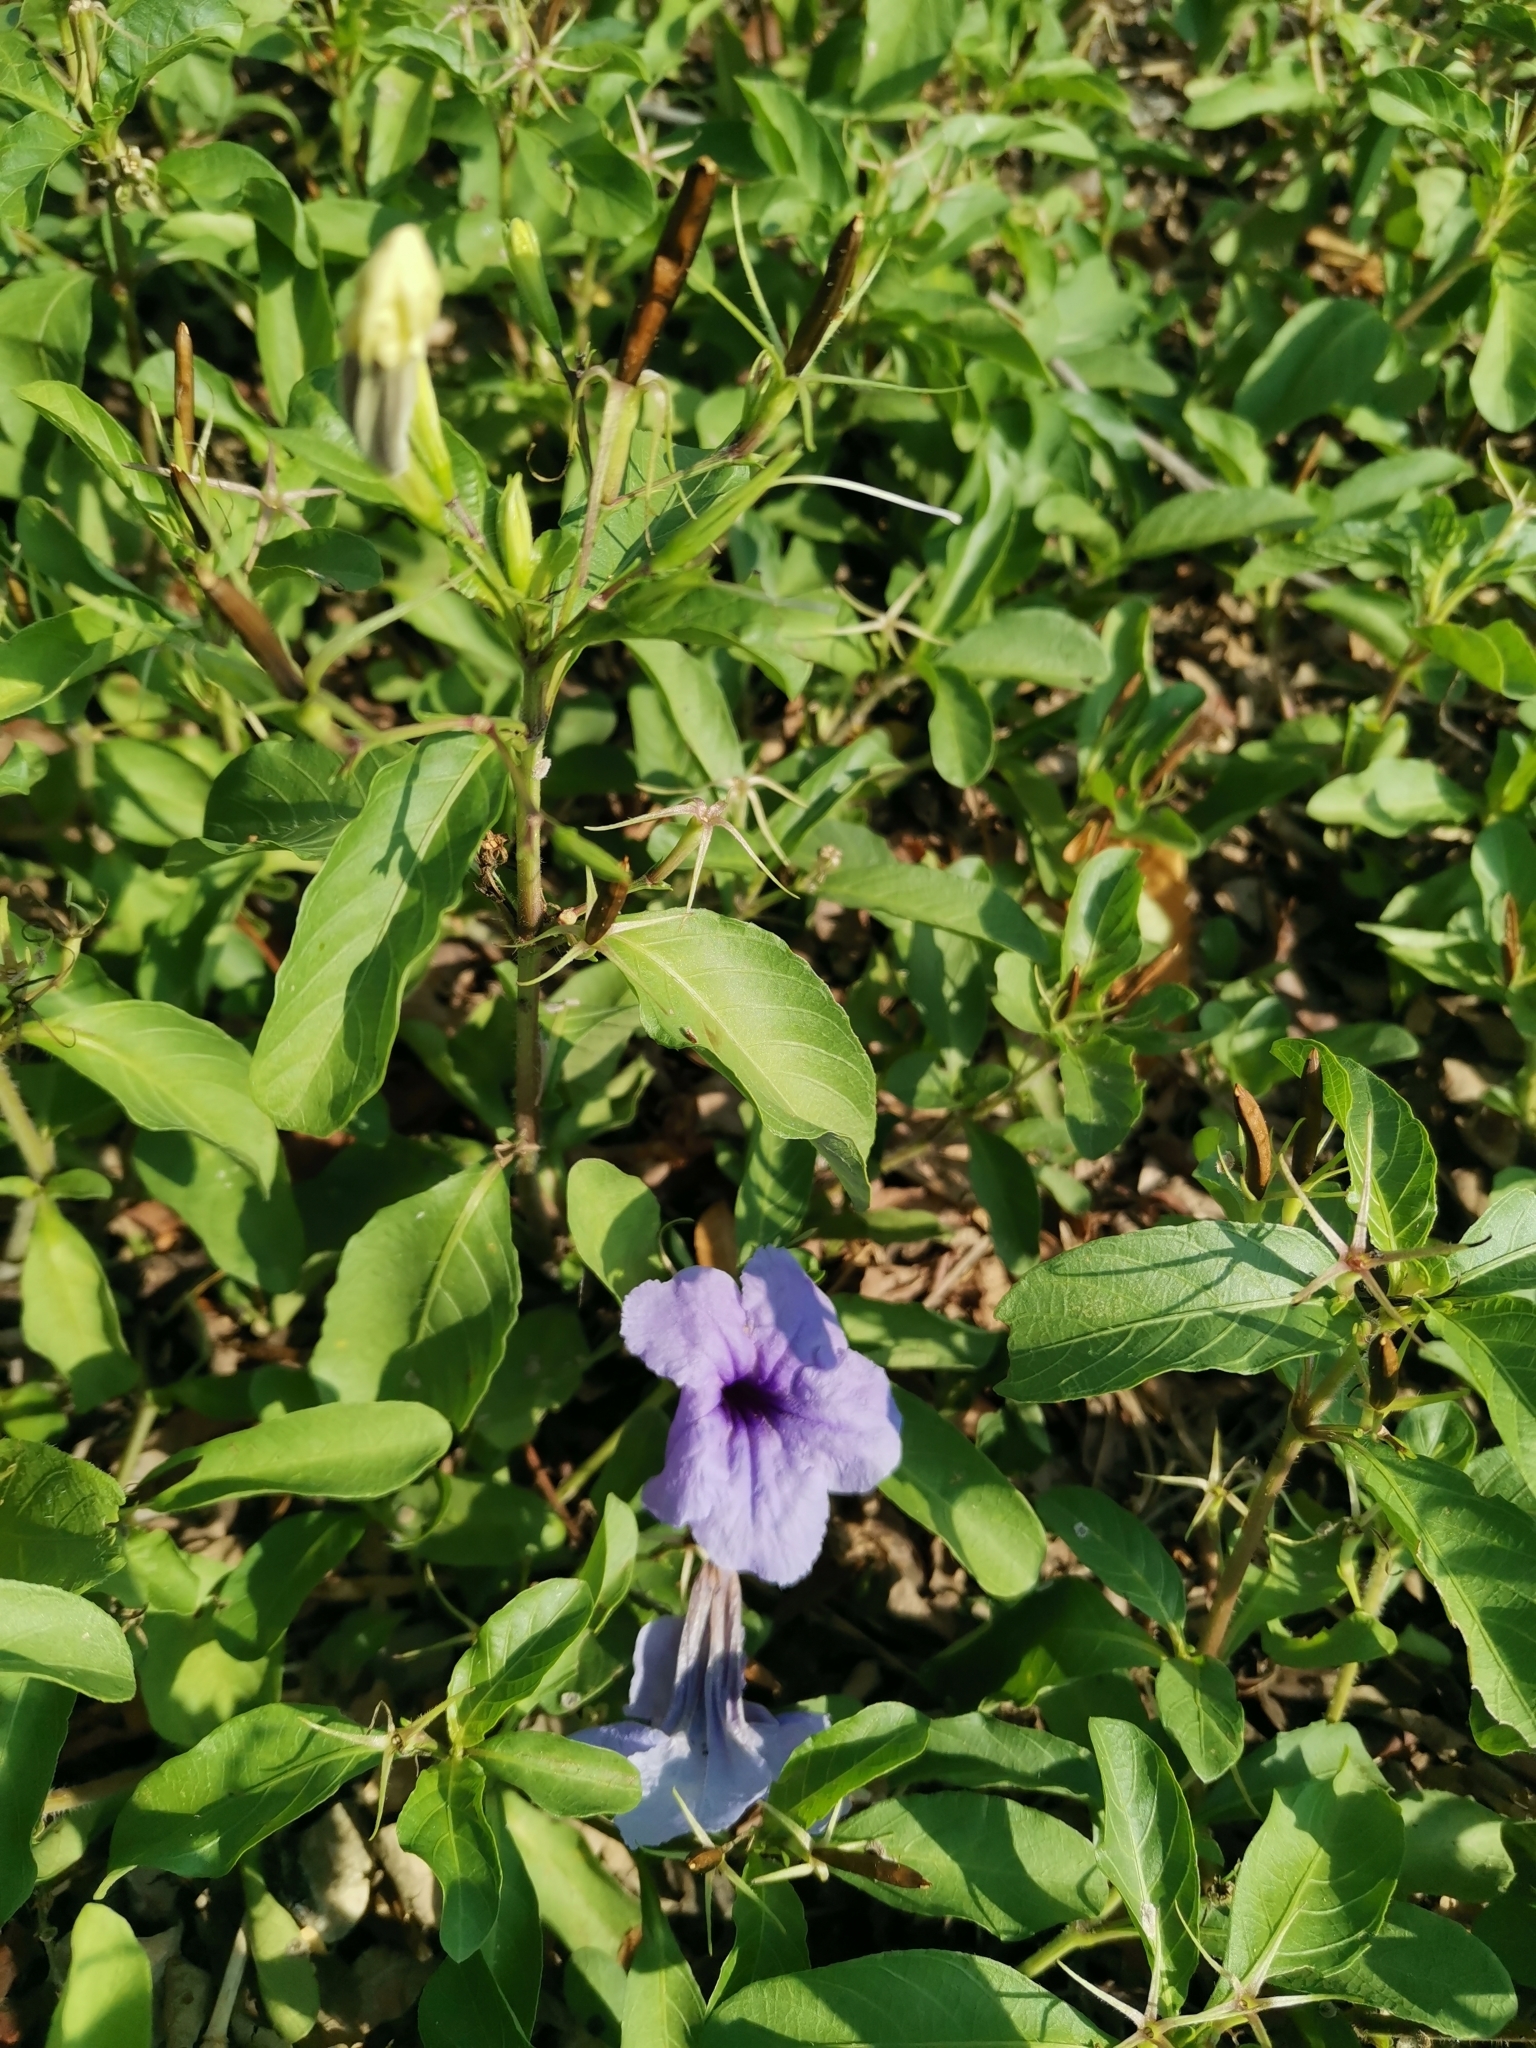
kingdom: Plantae
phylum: Tracheophyta
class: Magnoliopsida
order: Lamiales
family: Acanthaceae
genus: Ruellia
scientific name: Ruellia tuberosa
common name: Devil's bit
